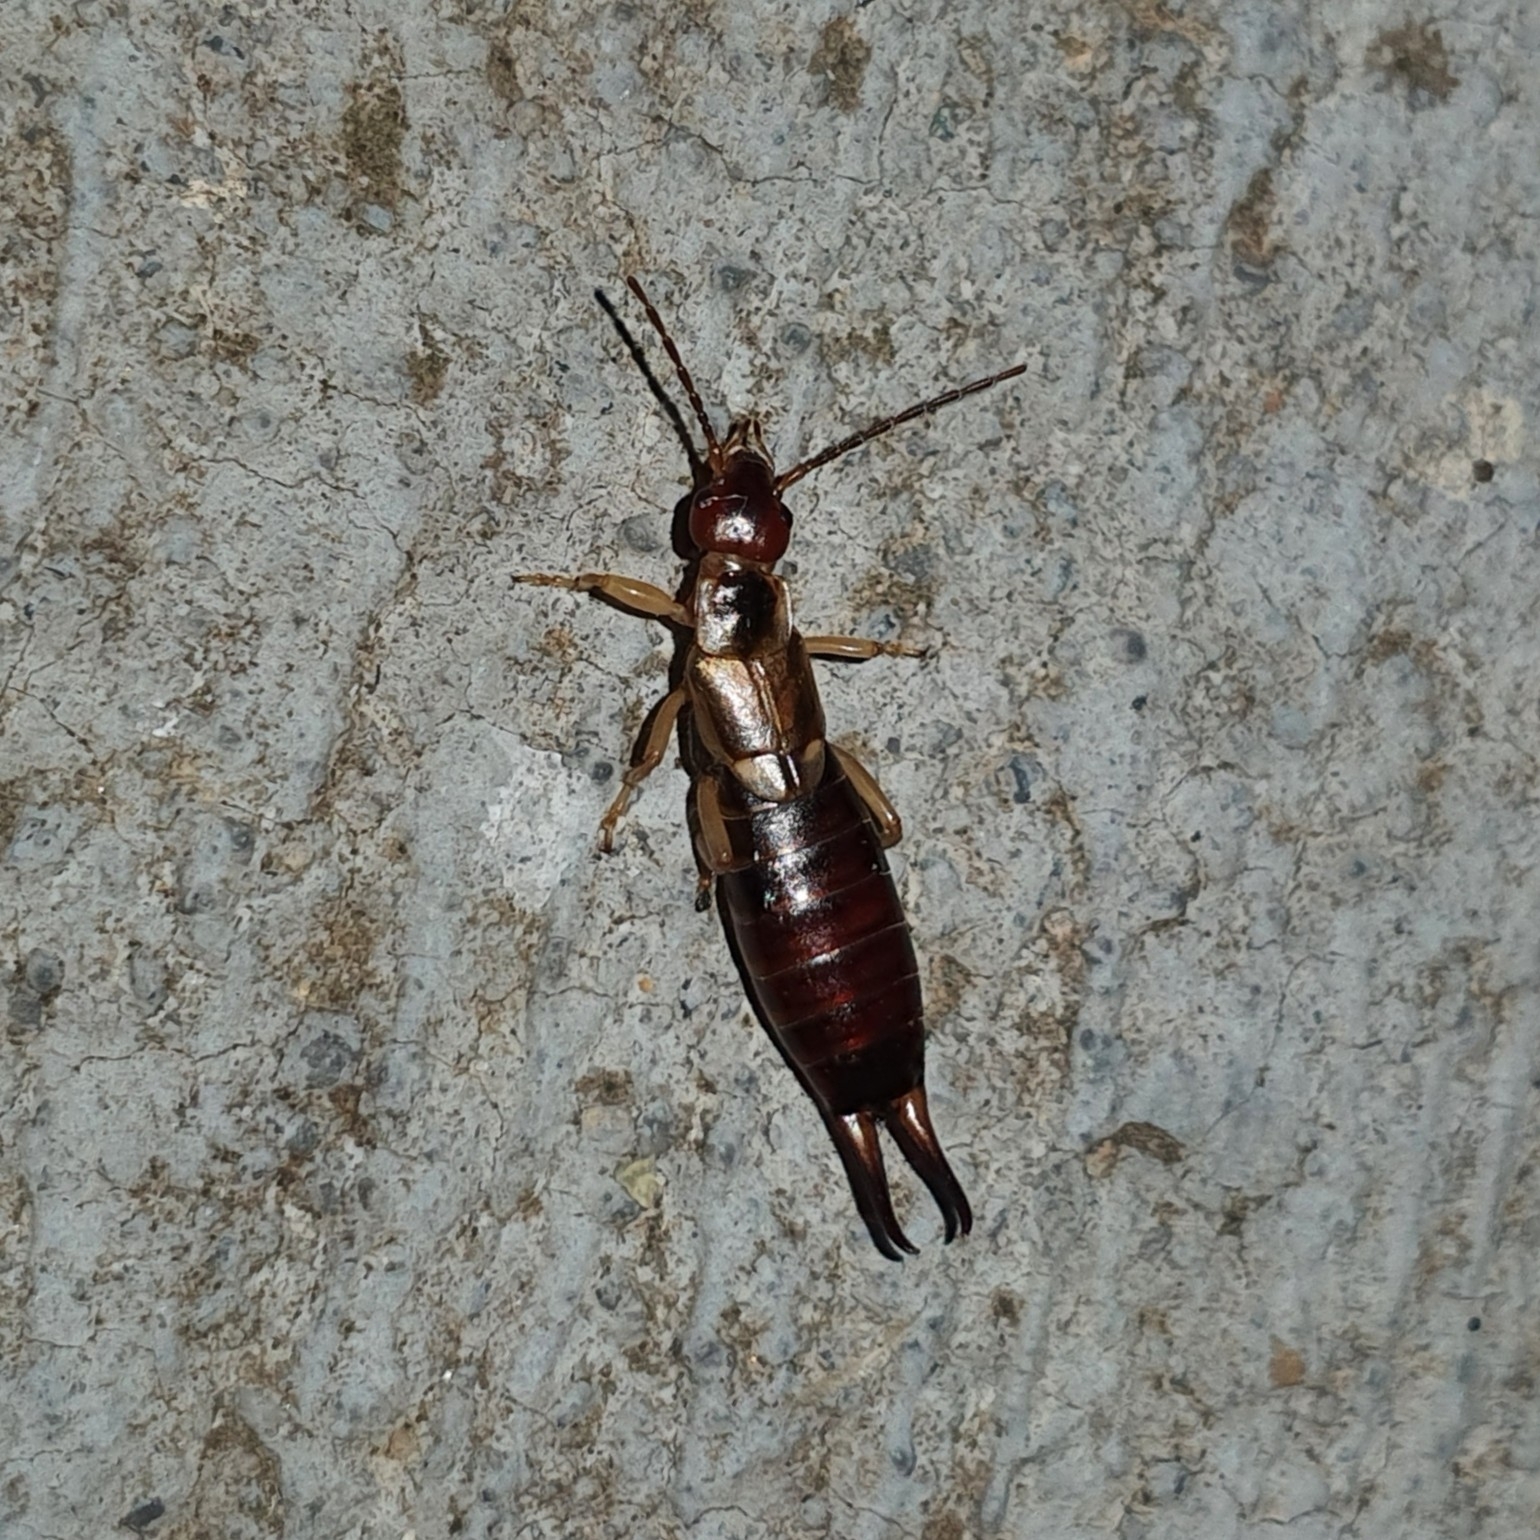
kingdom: Animalia
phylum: Arthropoda
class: Insecta
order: Dermaptera
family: Forficulidae
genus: Forficula
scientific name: Forficula
